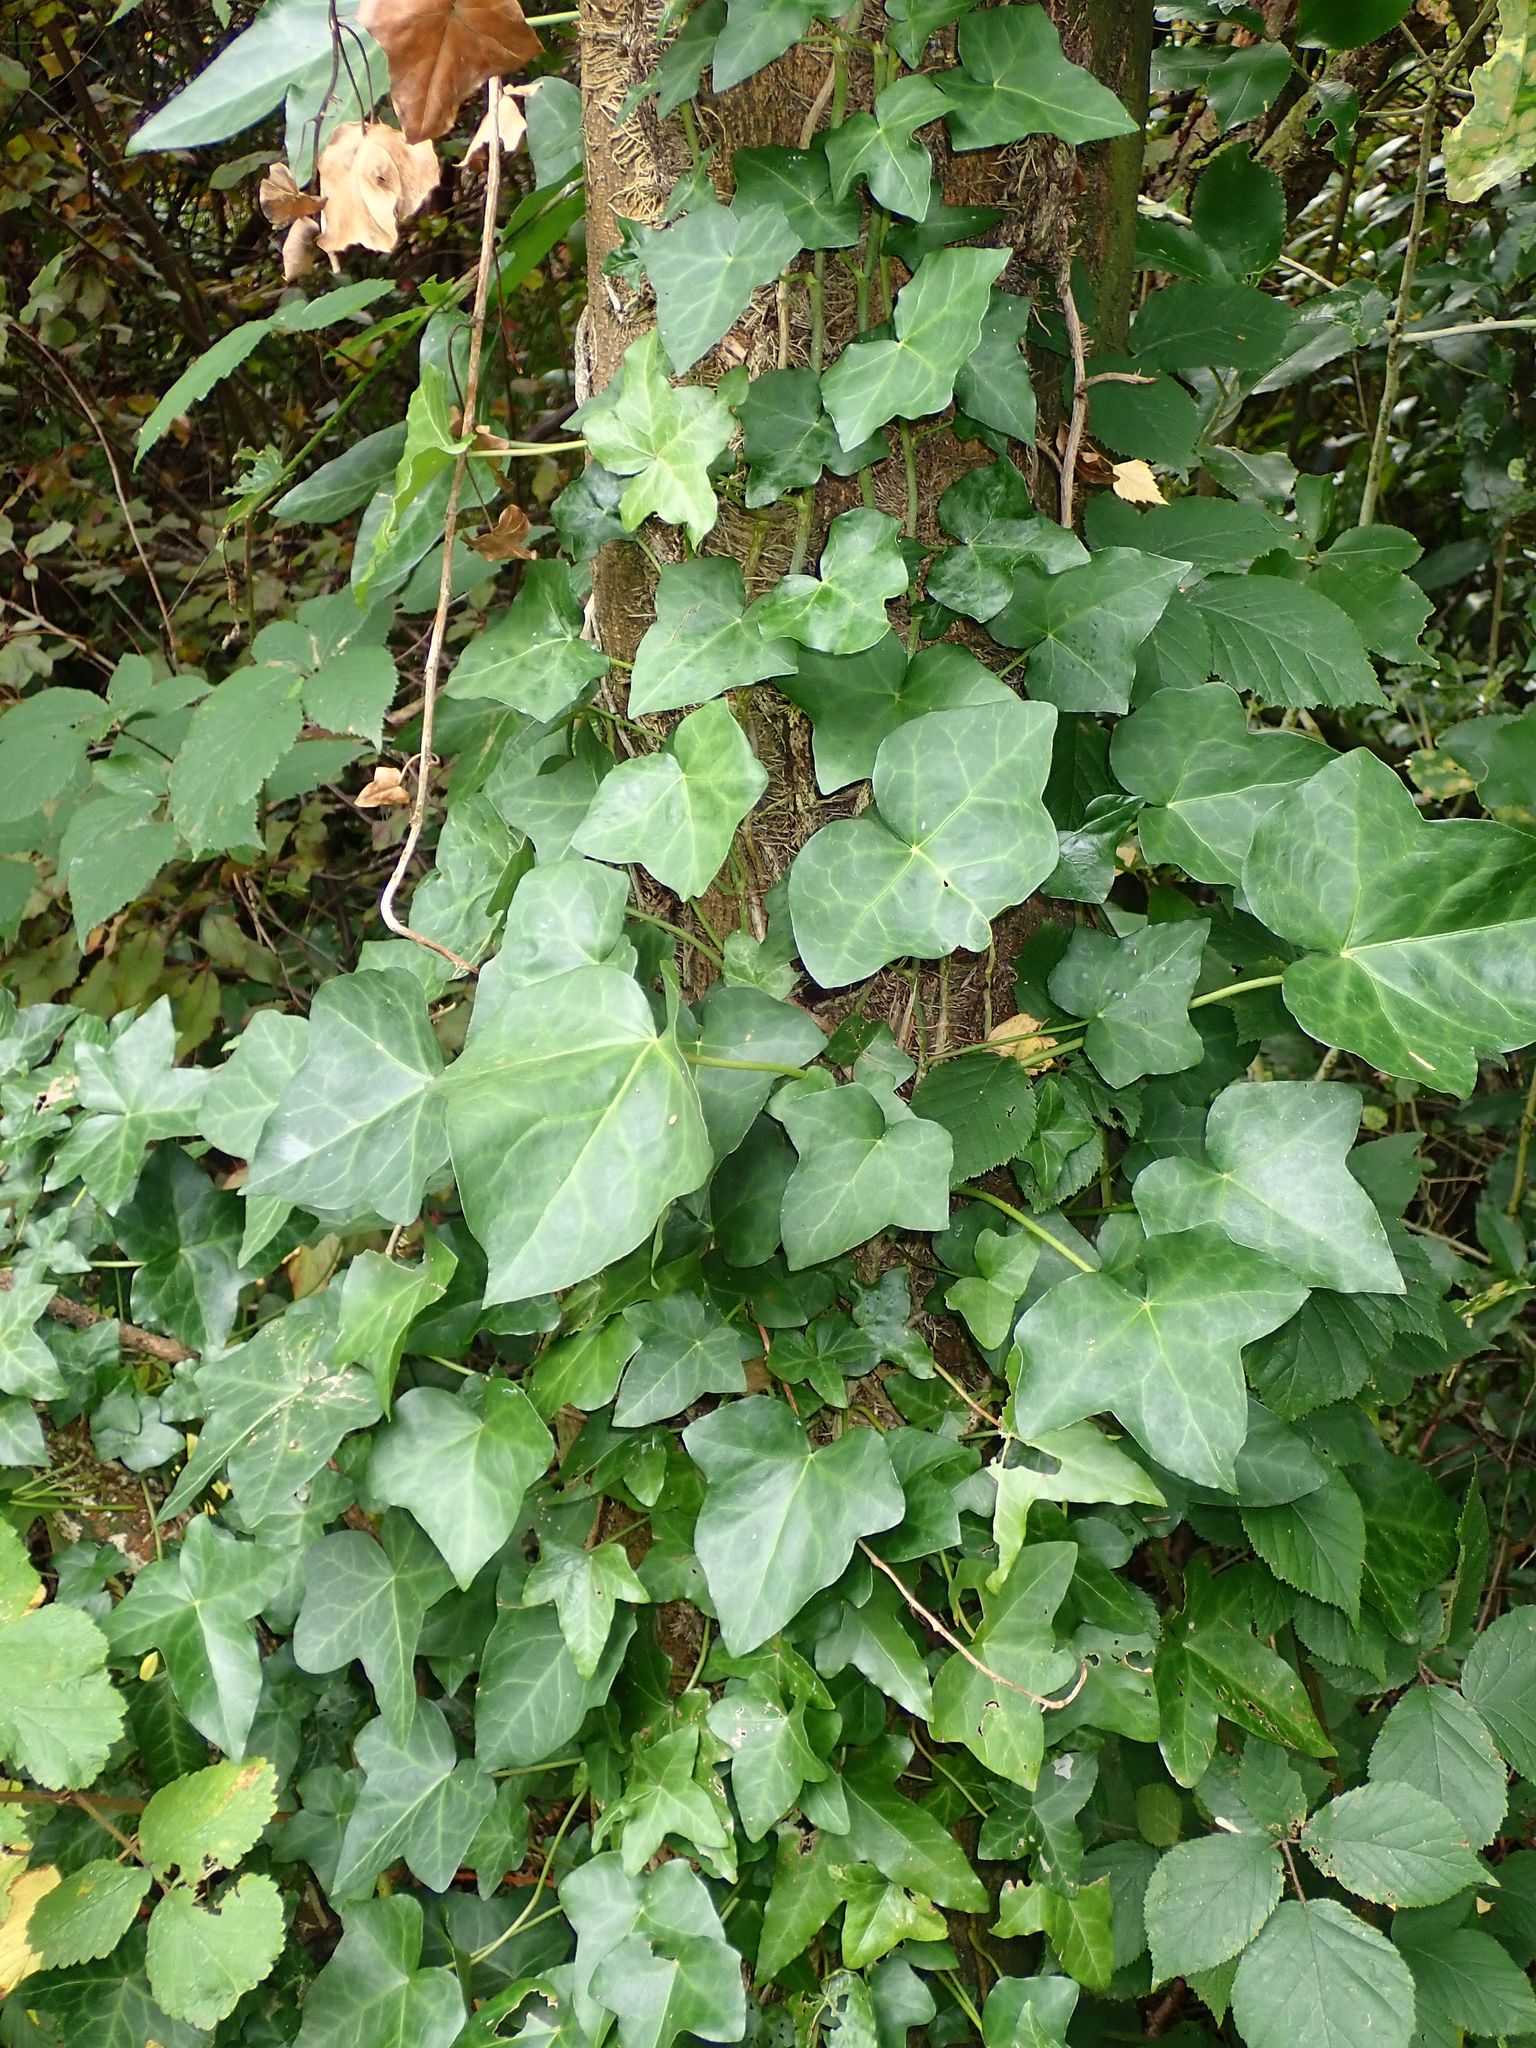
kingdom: Plantae
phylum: Tracheophyta
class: Magnoliopsida
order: Apiales
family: Araliaceae
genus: Hedera
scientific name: Hedera helix
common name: Ivy
